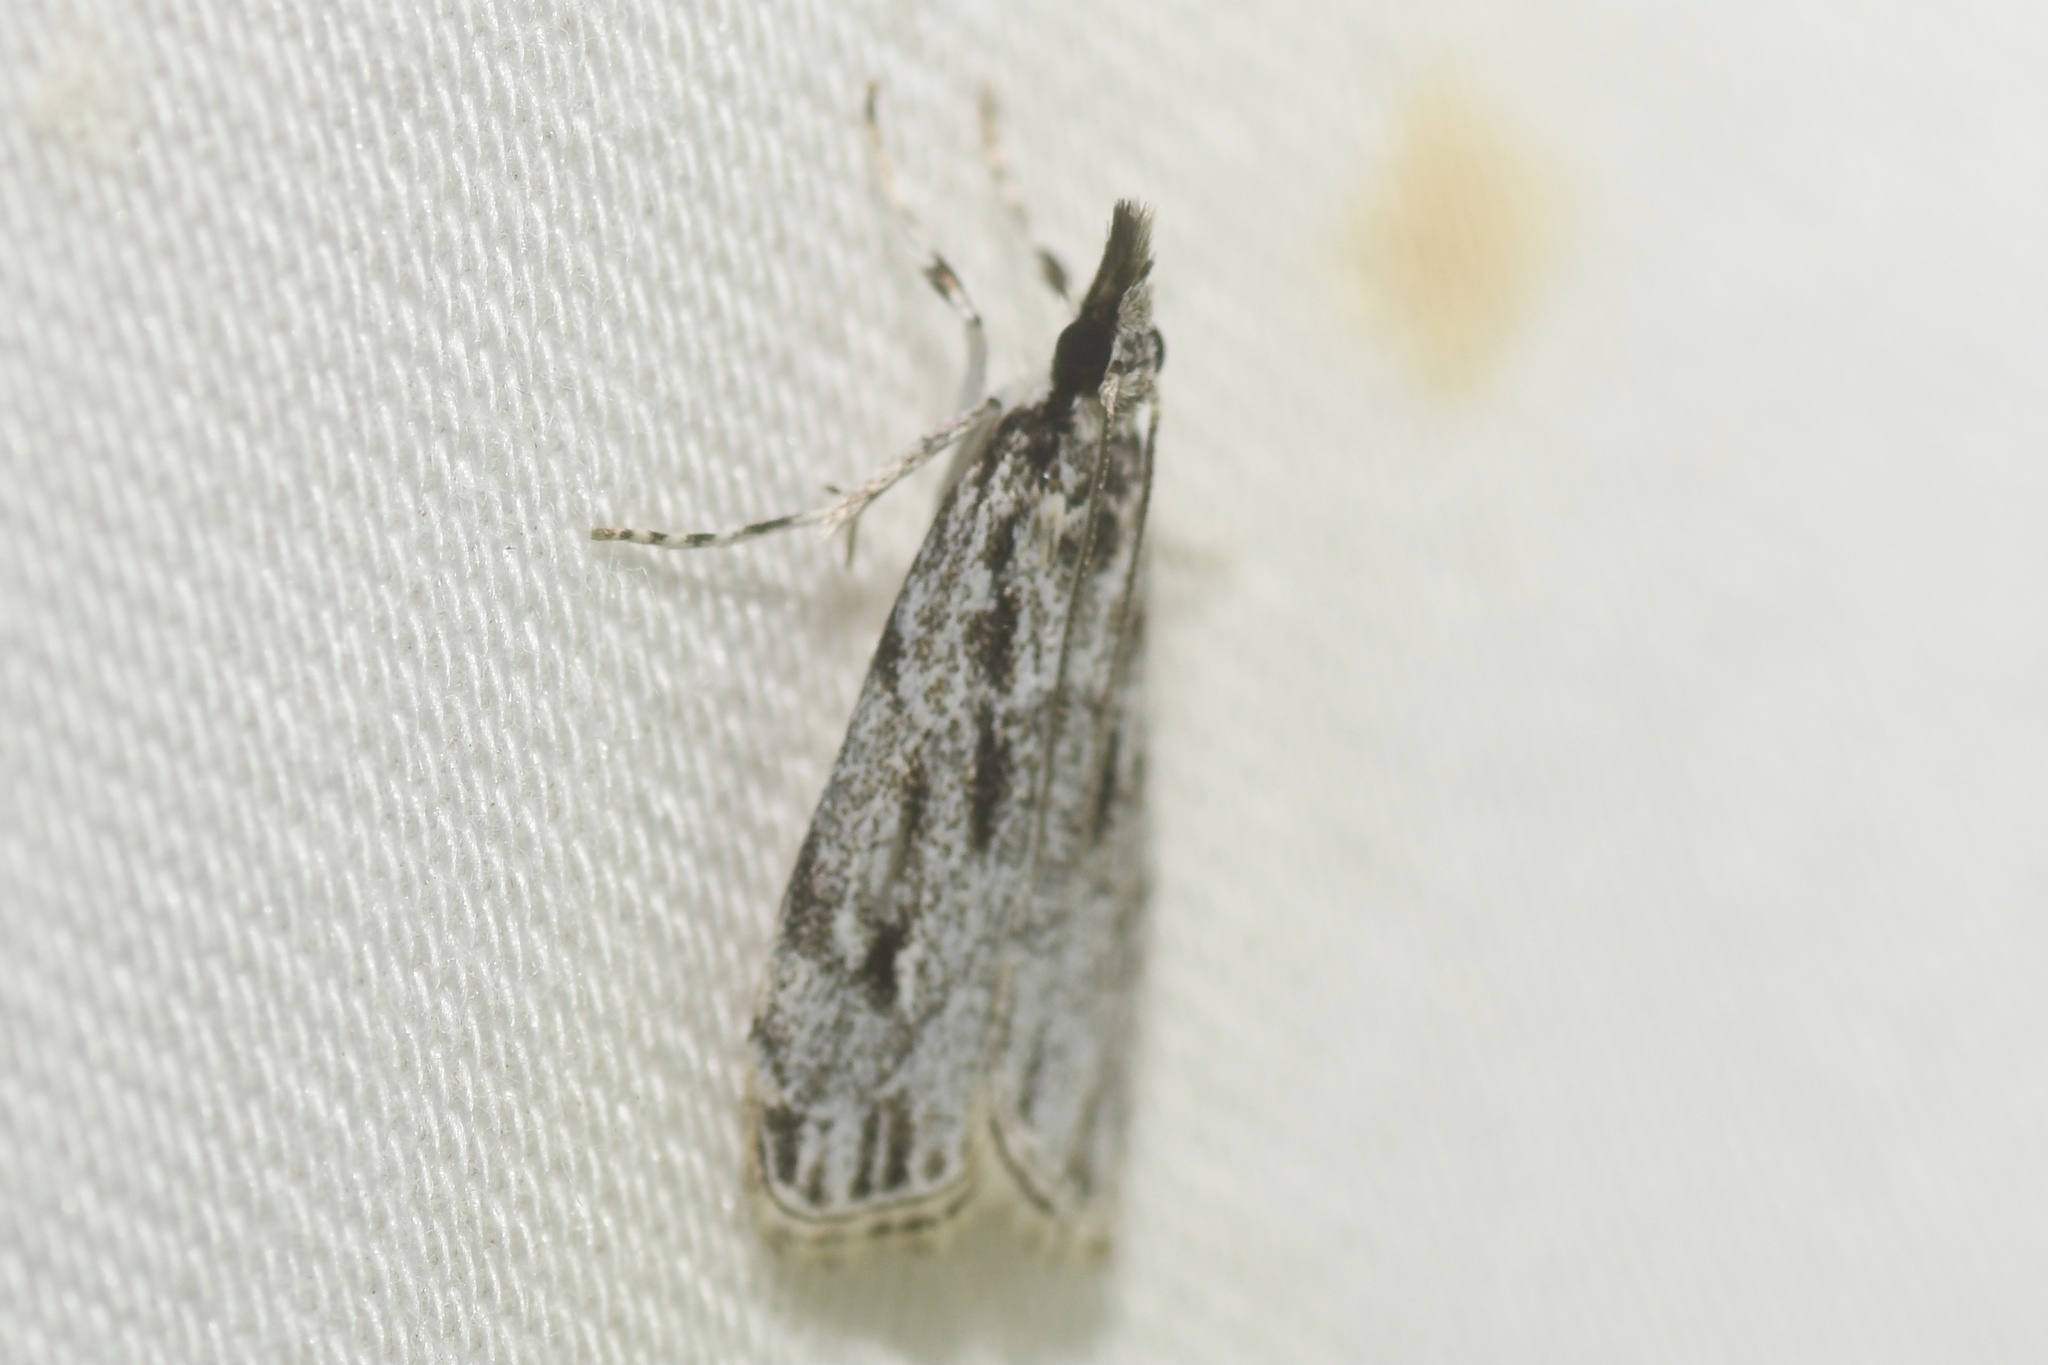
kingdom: Animalia
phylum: Arthropoda
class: Insecta
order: Lepidoptera
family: Crambidae
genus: Eudonia
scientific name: Eudonia strigalis
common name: Striped eudonia moth
